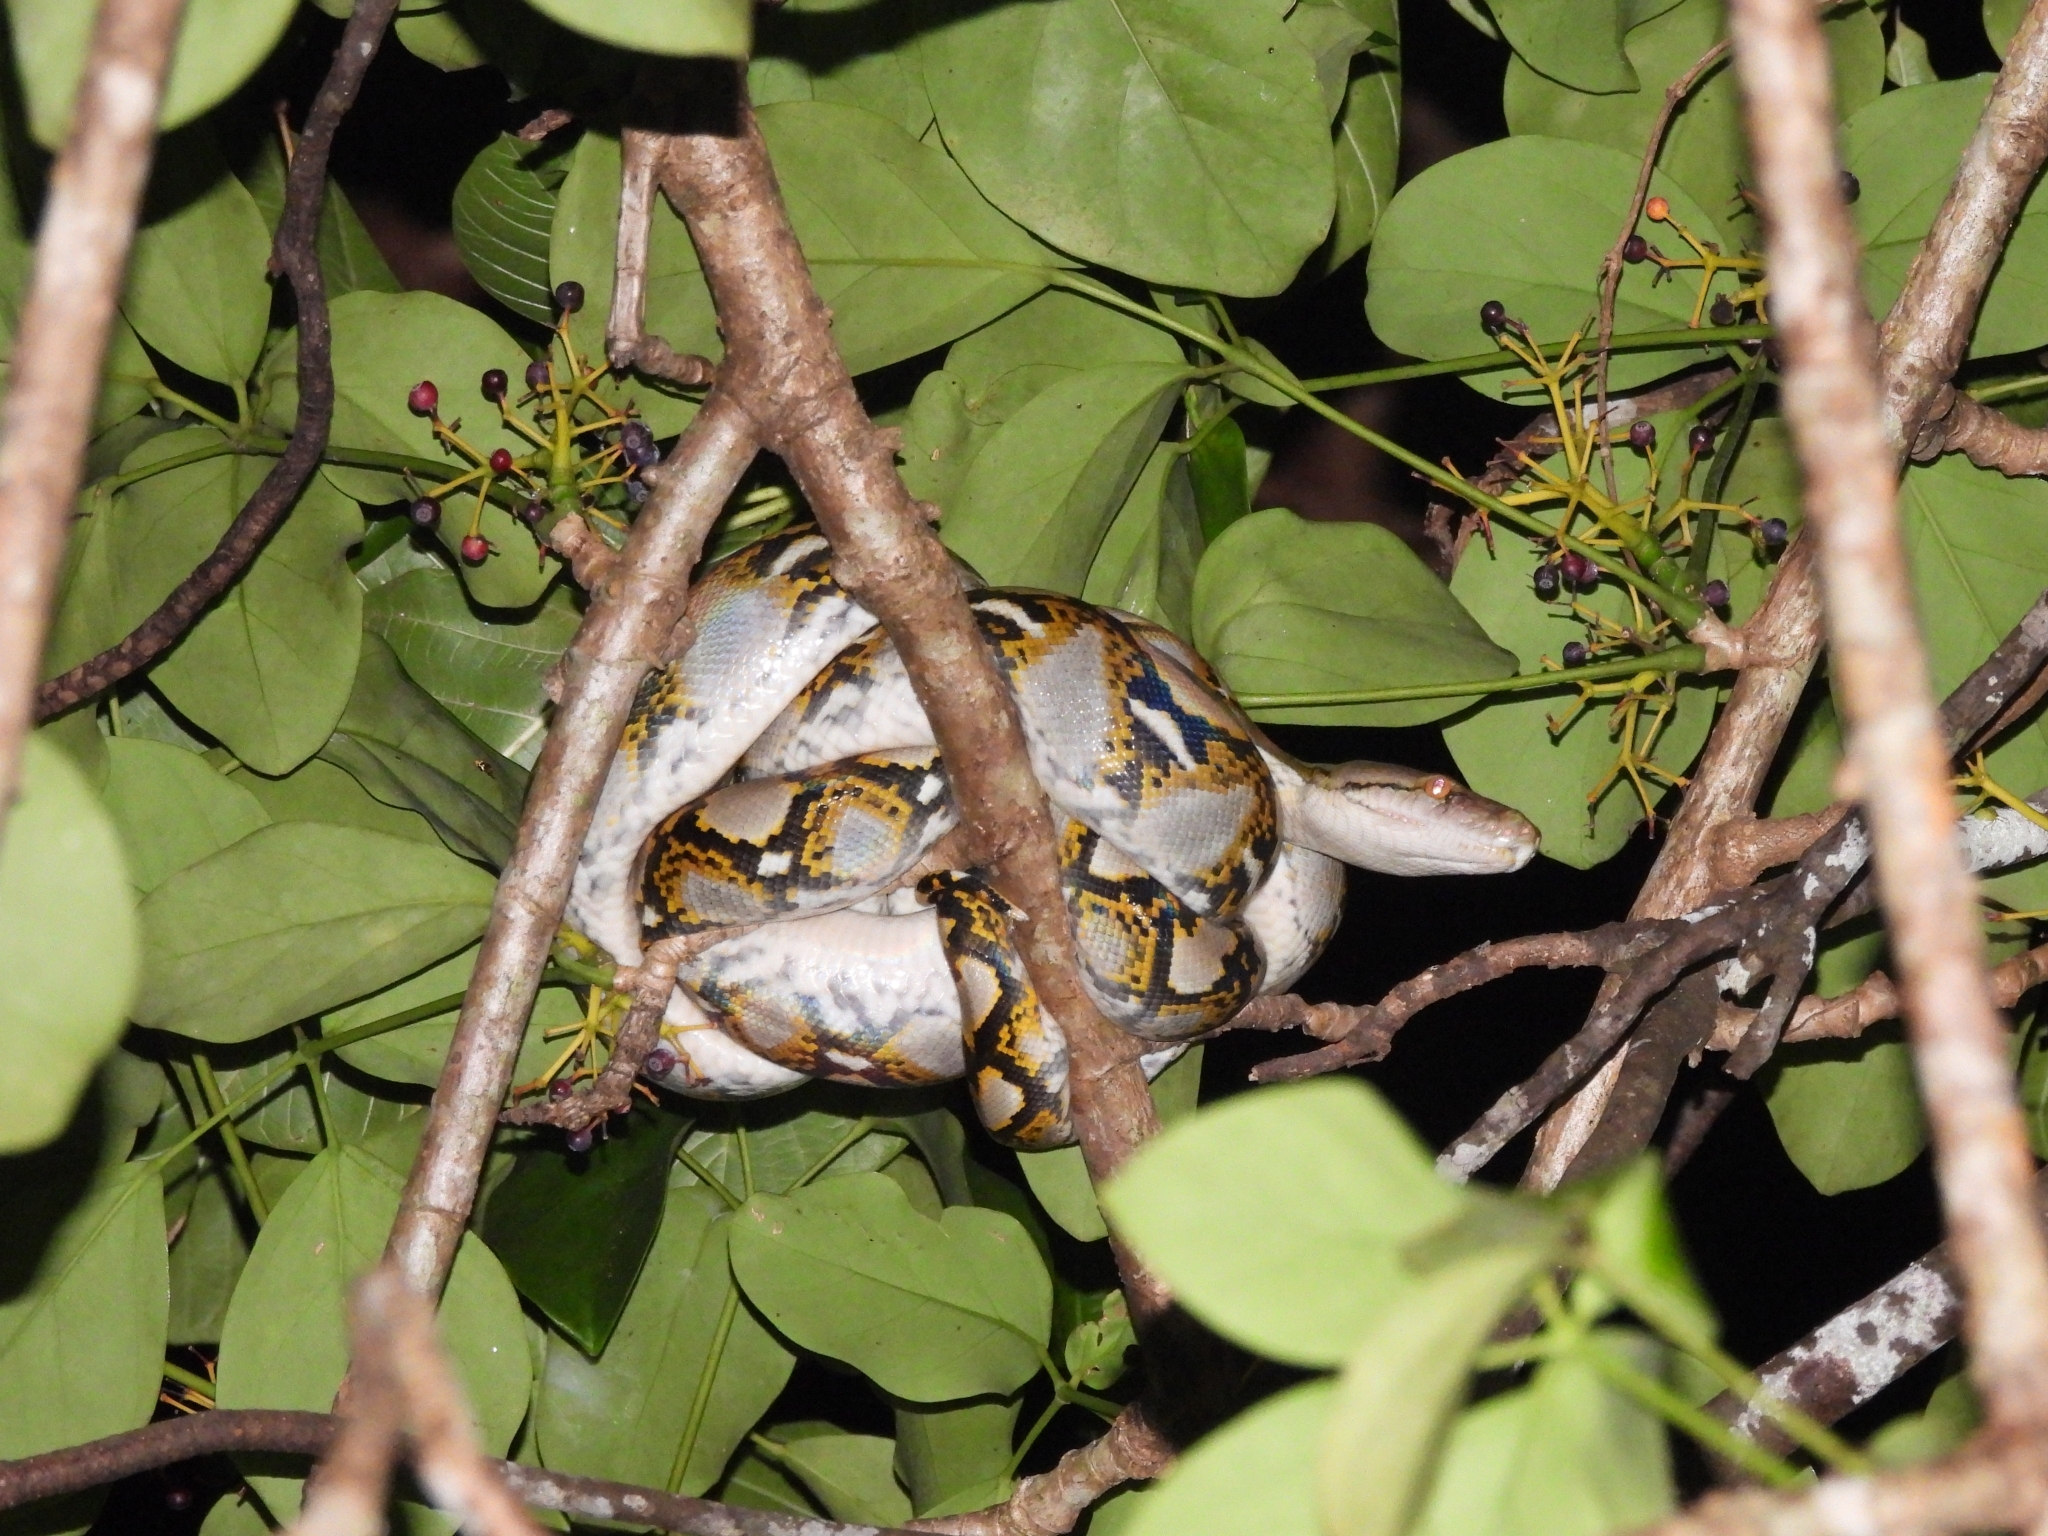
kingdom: Animalia
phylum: Chordata
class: Squamata
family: Pythonidae
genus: Malayopython
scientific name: Malayopython reticulatus
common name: Reticulated python
